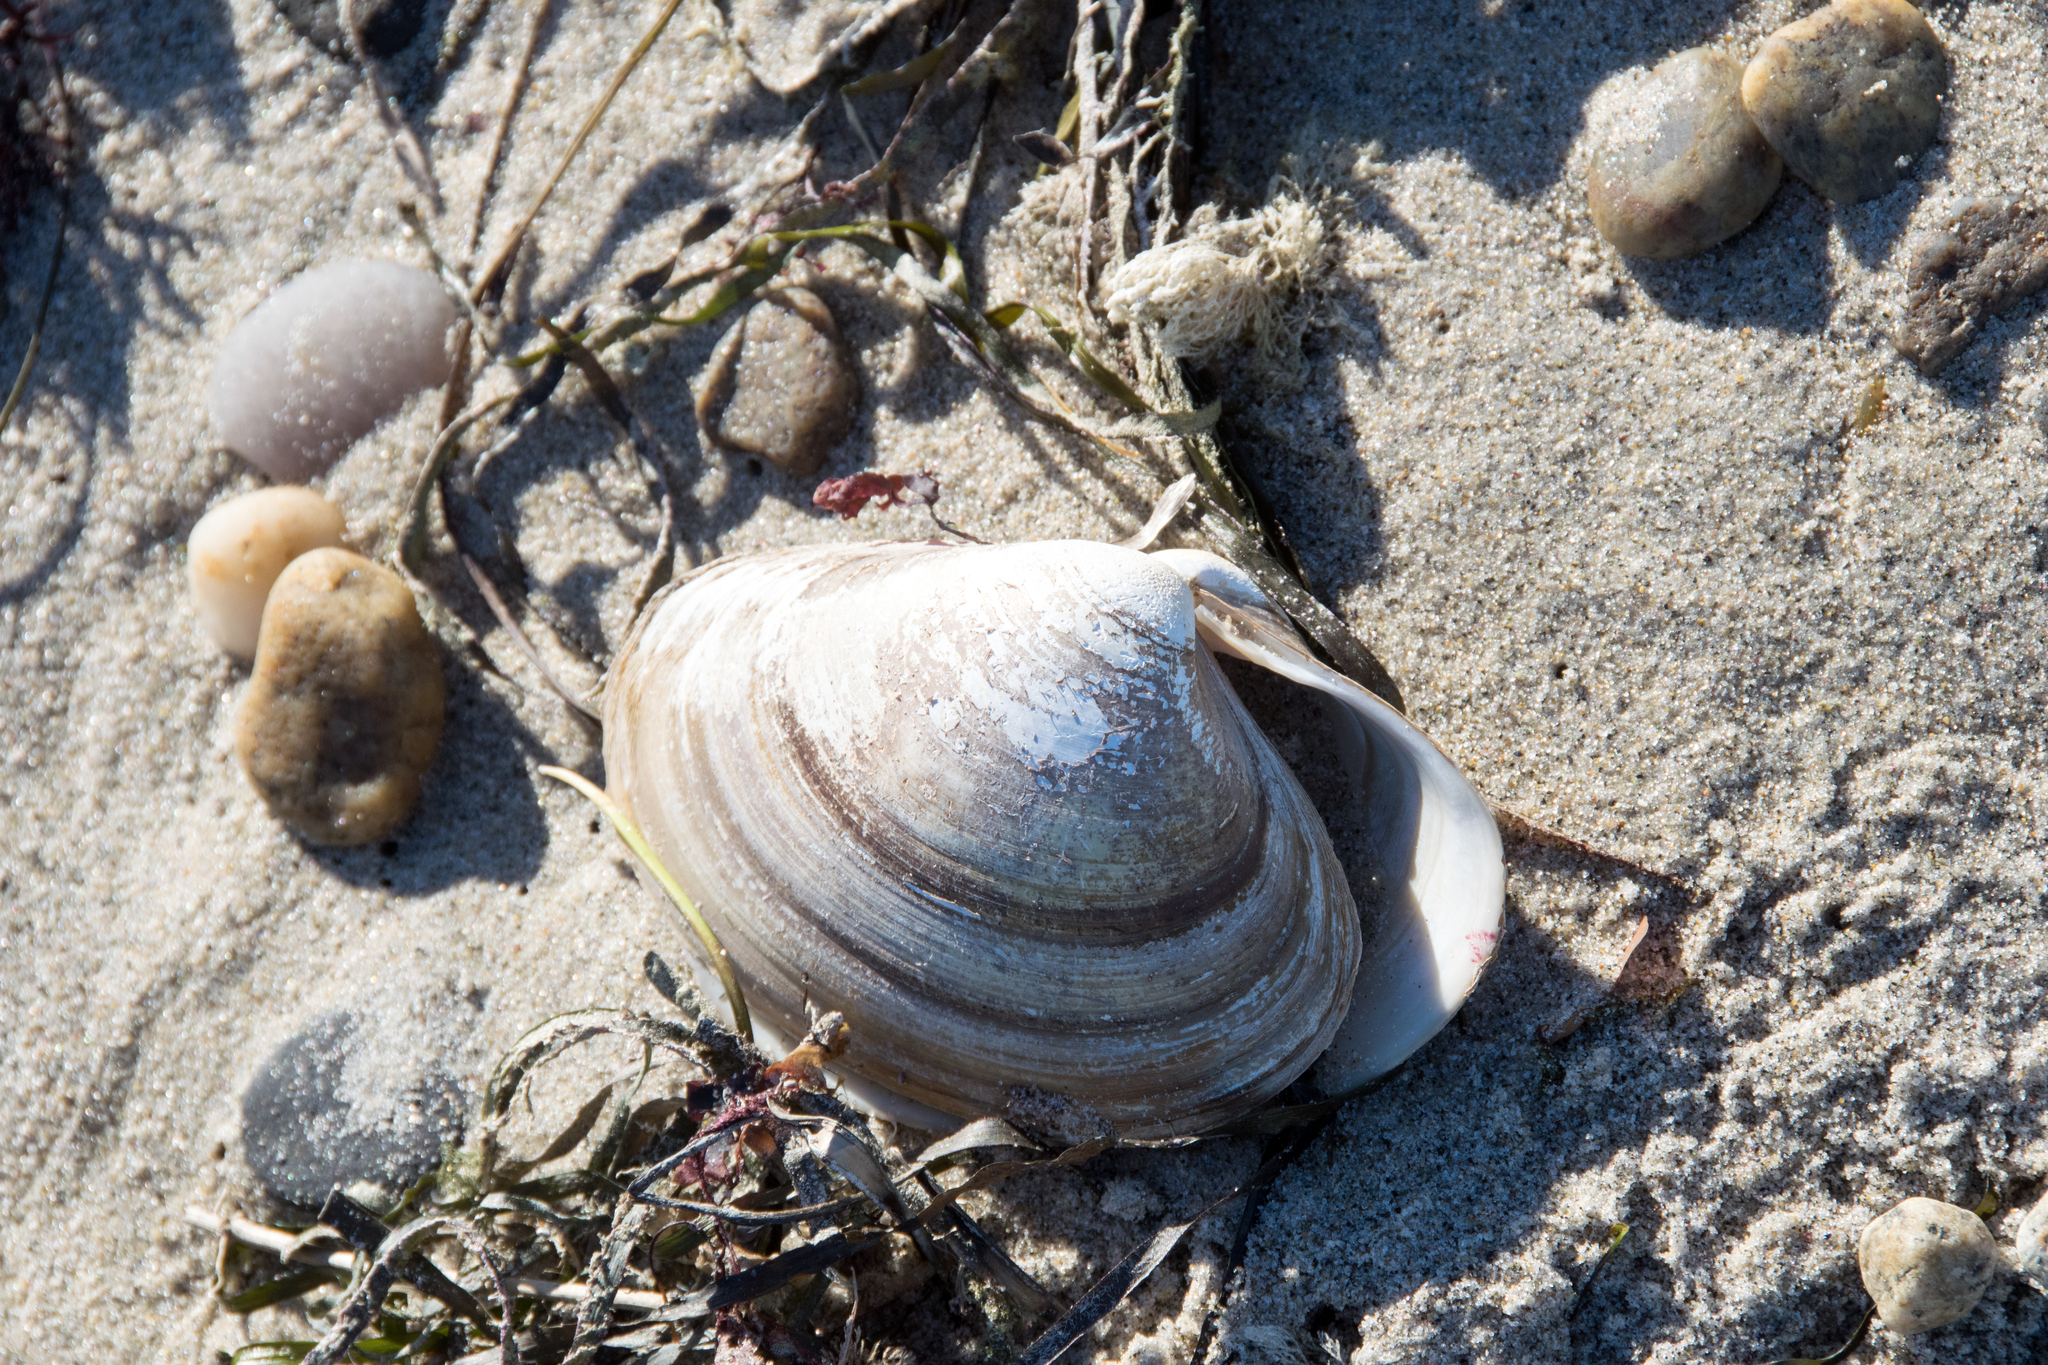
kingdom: Animalia
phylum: Mollusca
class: Bivalvia
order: Venerida
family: Mactridae
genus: Spisula
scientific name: Spisula solidissima
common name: Atlantic surf clam
